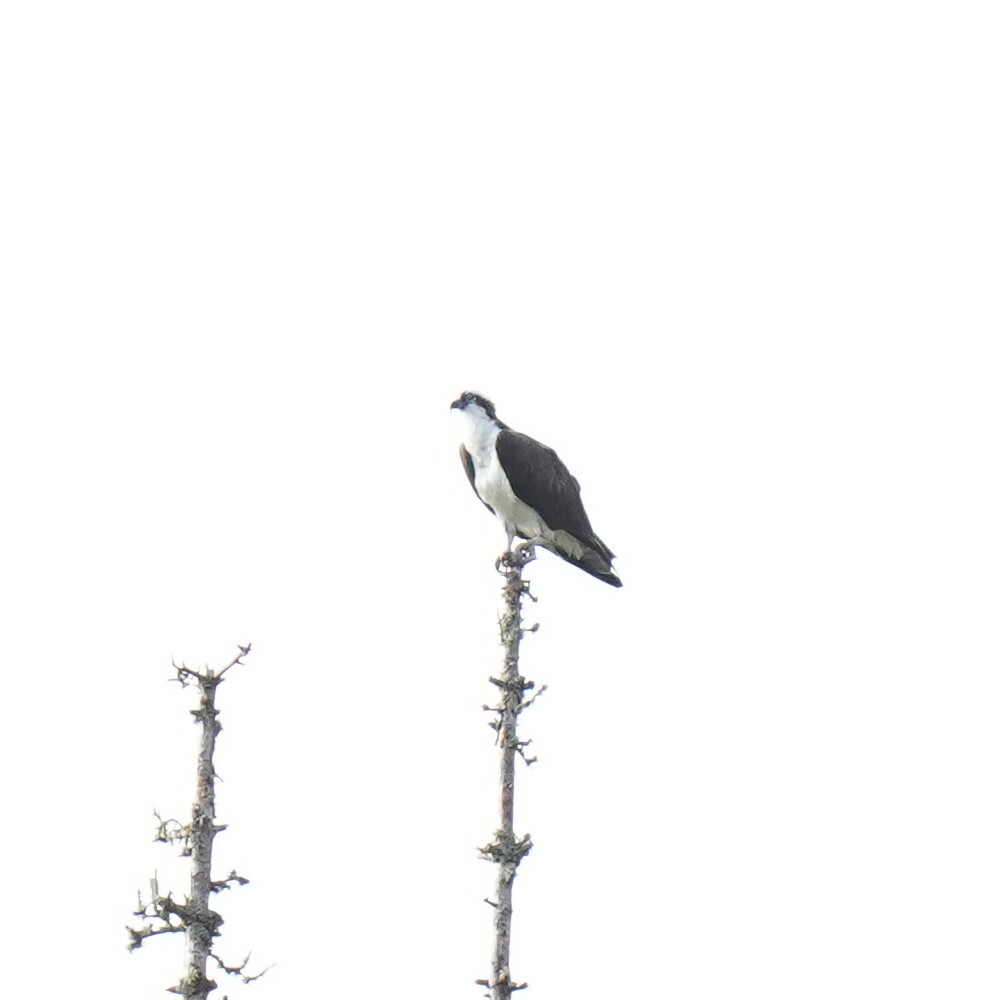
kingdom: Animalia
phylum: Chordata
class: Aves
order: Accipitriformes
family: Pandionidae
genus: Pandion
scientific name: Pandion haliaetus
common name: Osprey
